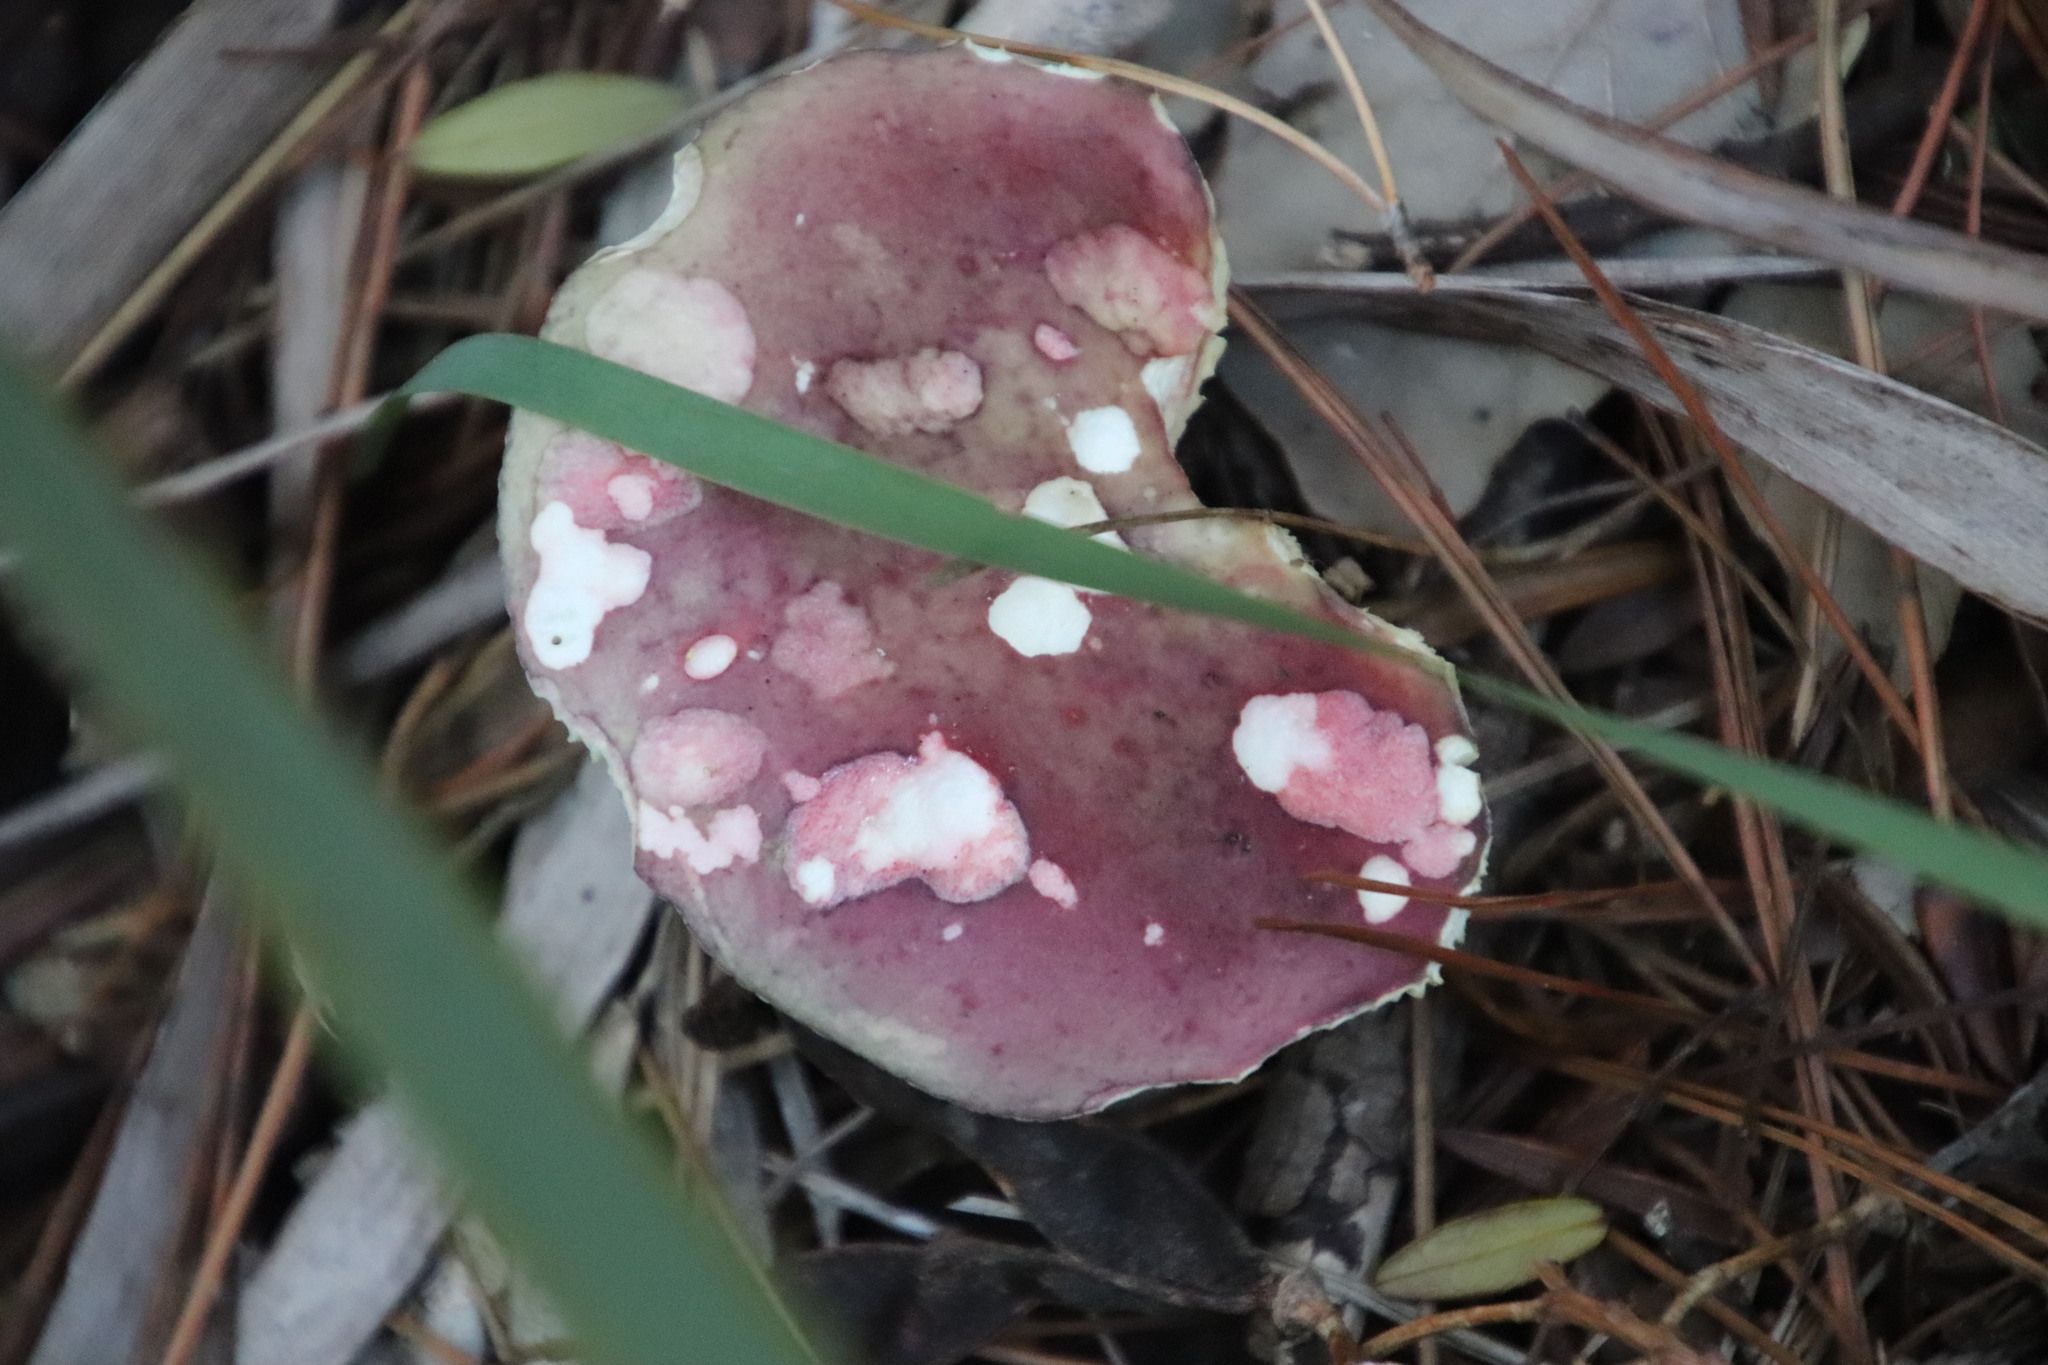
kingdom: Fungi
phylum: Basidiomycota
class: Agaricomycetes
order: Russulales
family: Russulaceae
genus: Russula
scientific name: Russula sardonia
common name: Primrose brittlegill
